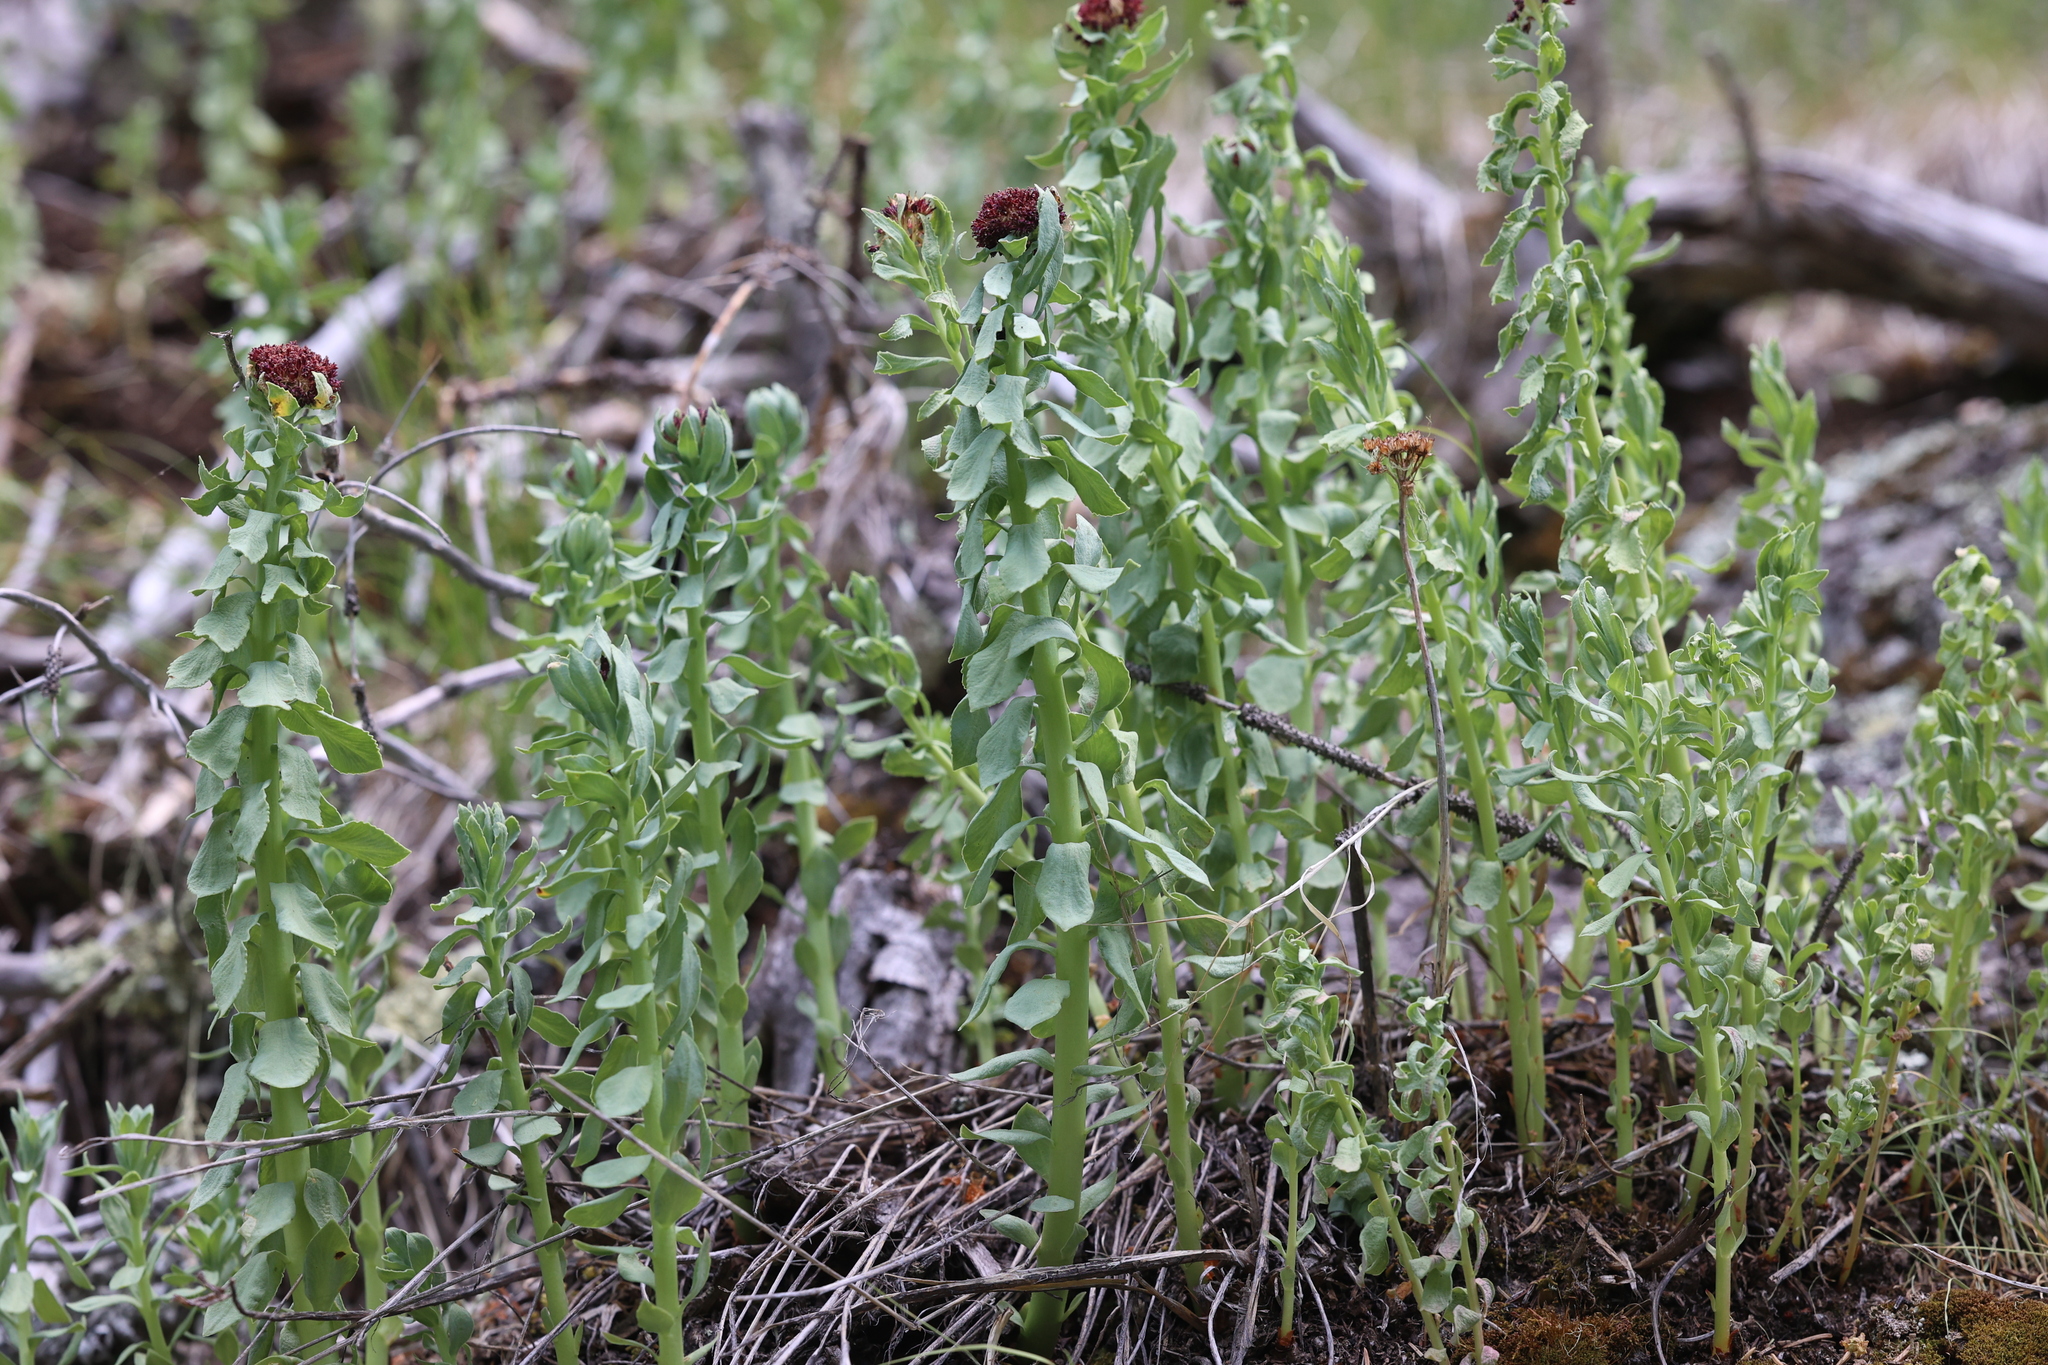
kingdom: Plantae
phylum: Tracheophyta
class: Magnoliopsida
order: Saxifragales
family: Crassulaceae
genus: Rhodiola
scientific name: Rhodiola integrifolia
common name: Western roseroot
